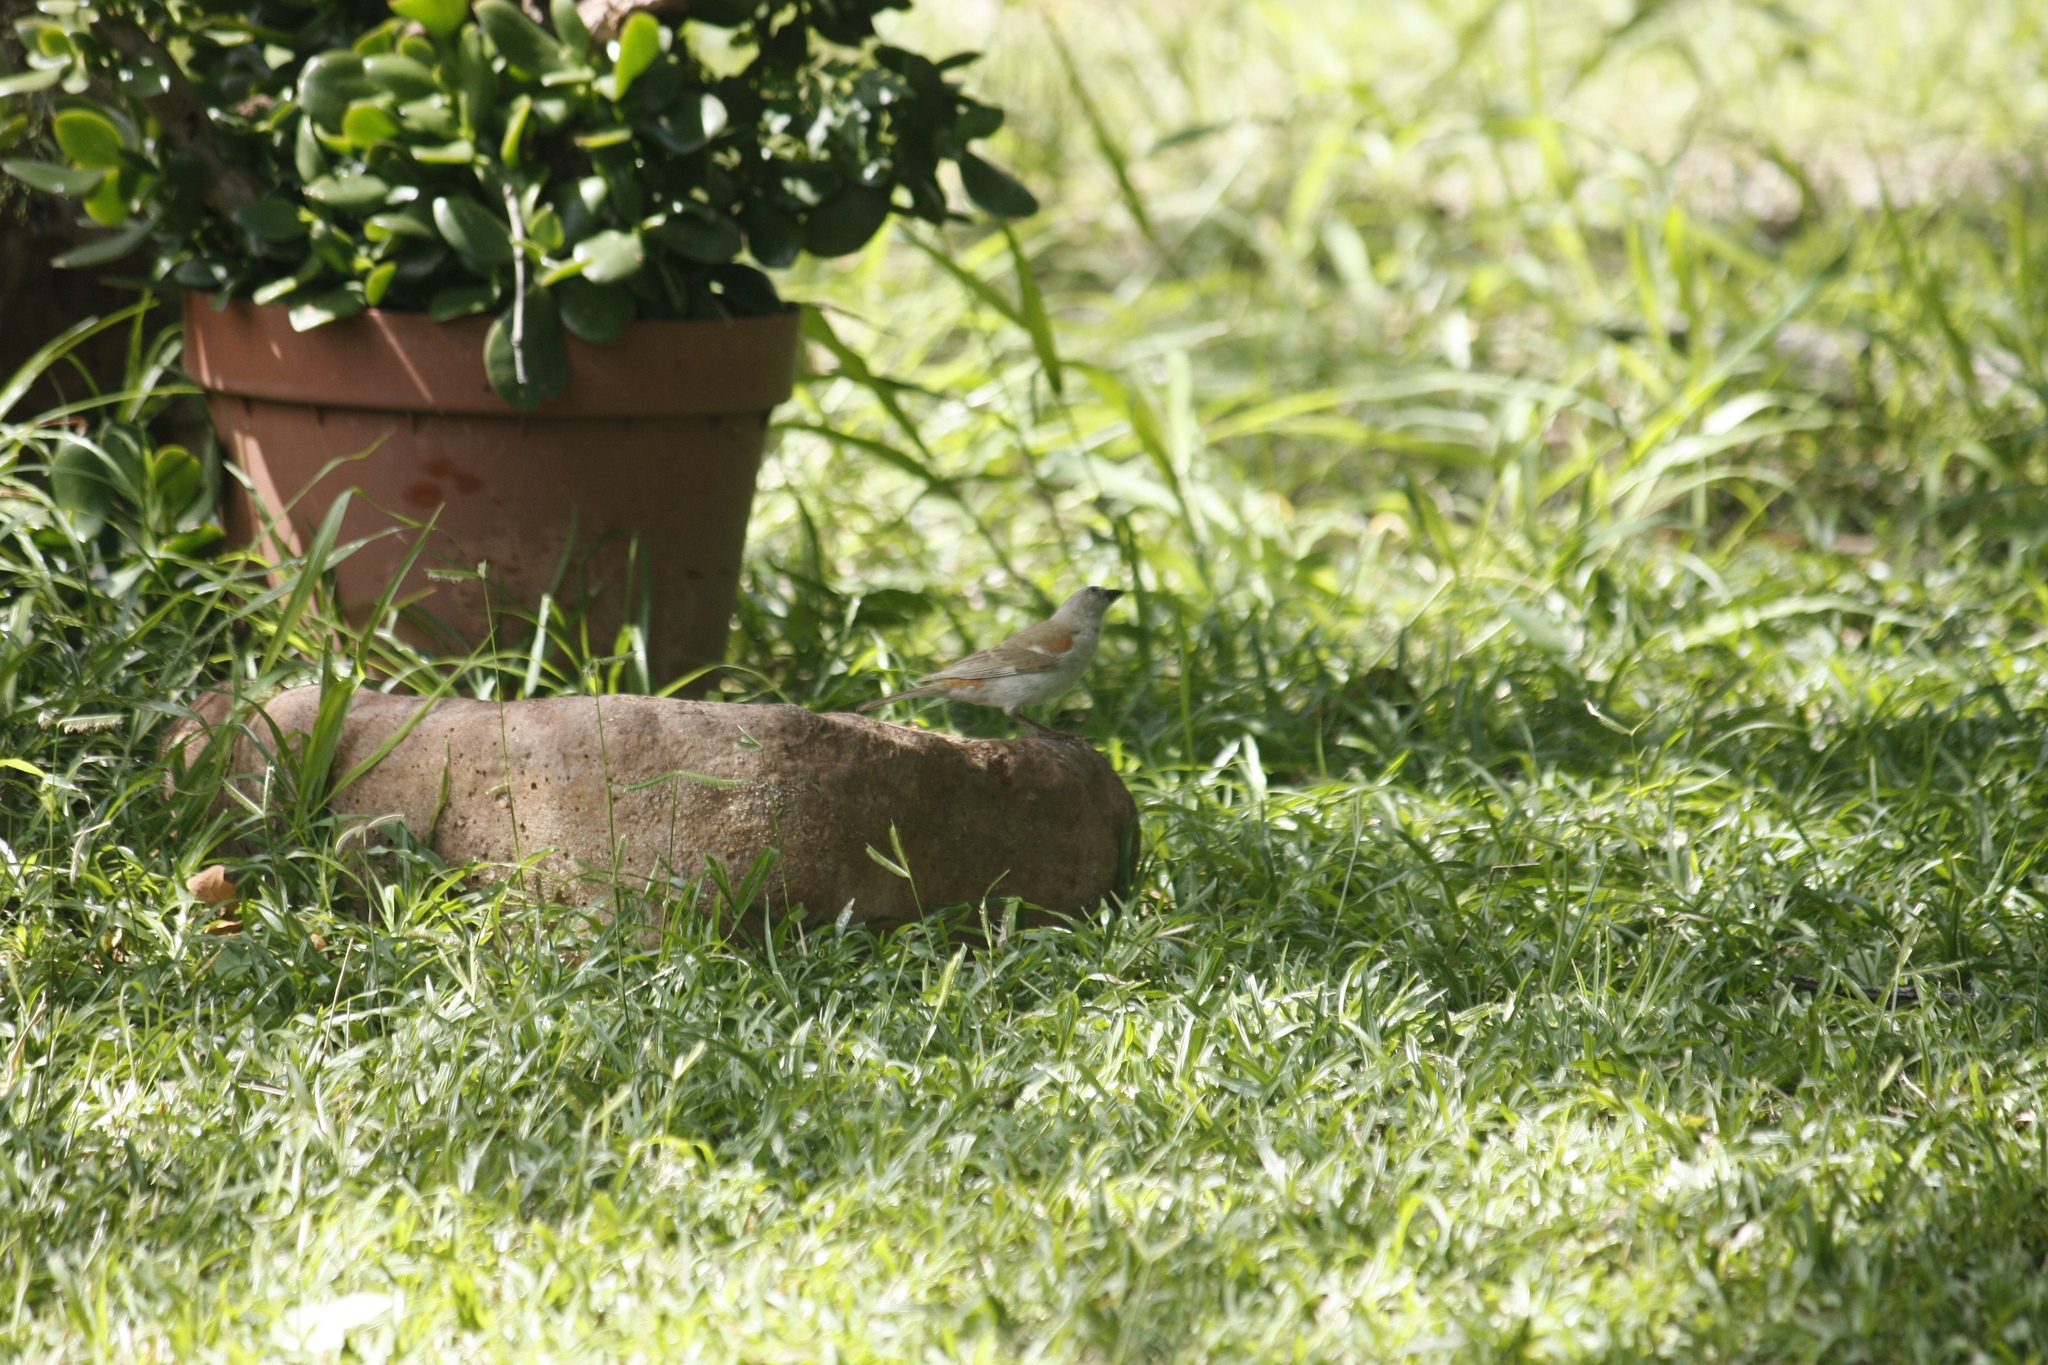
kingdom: Animalia
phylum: Chordata
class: Aves
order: Passeriformes
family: Passeridae
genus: Passer
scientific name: Passer diffusus
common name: Southern grey-headed sparrow
